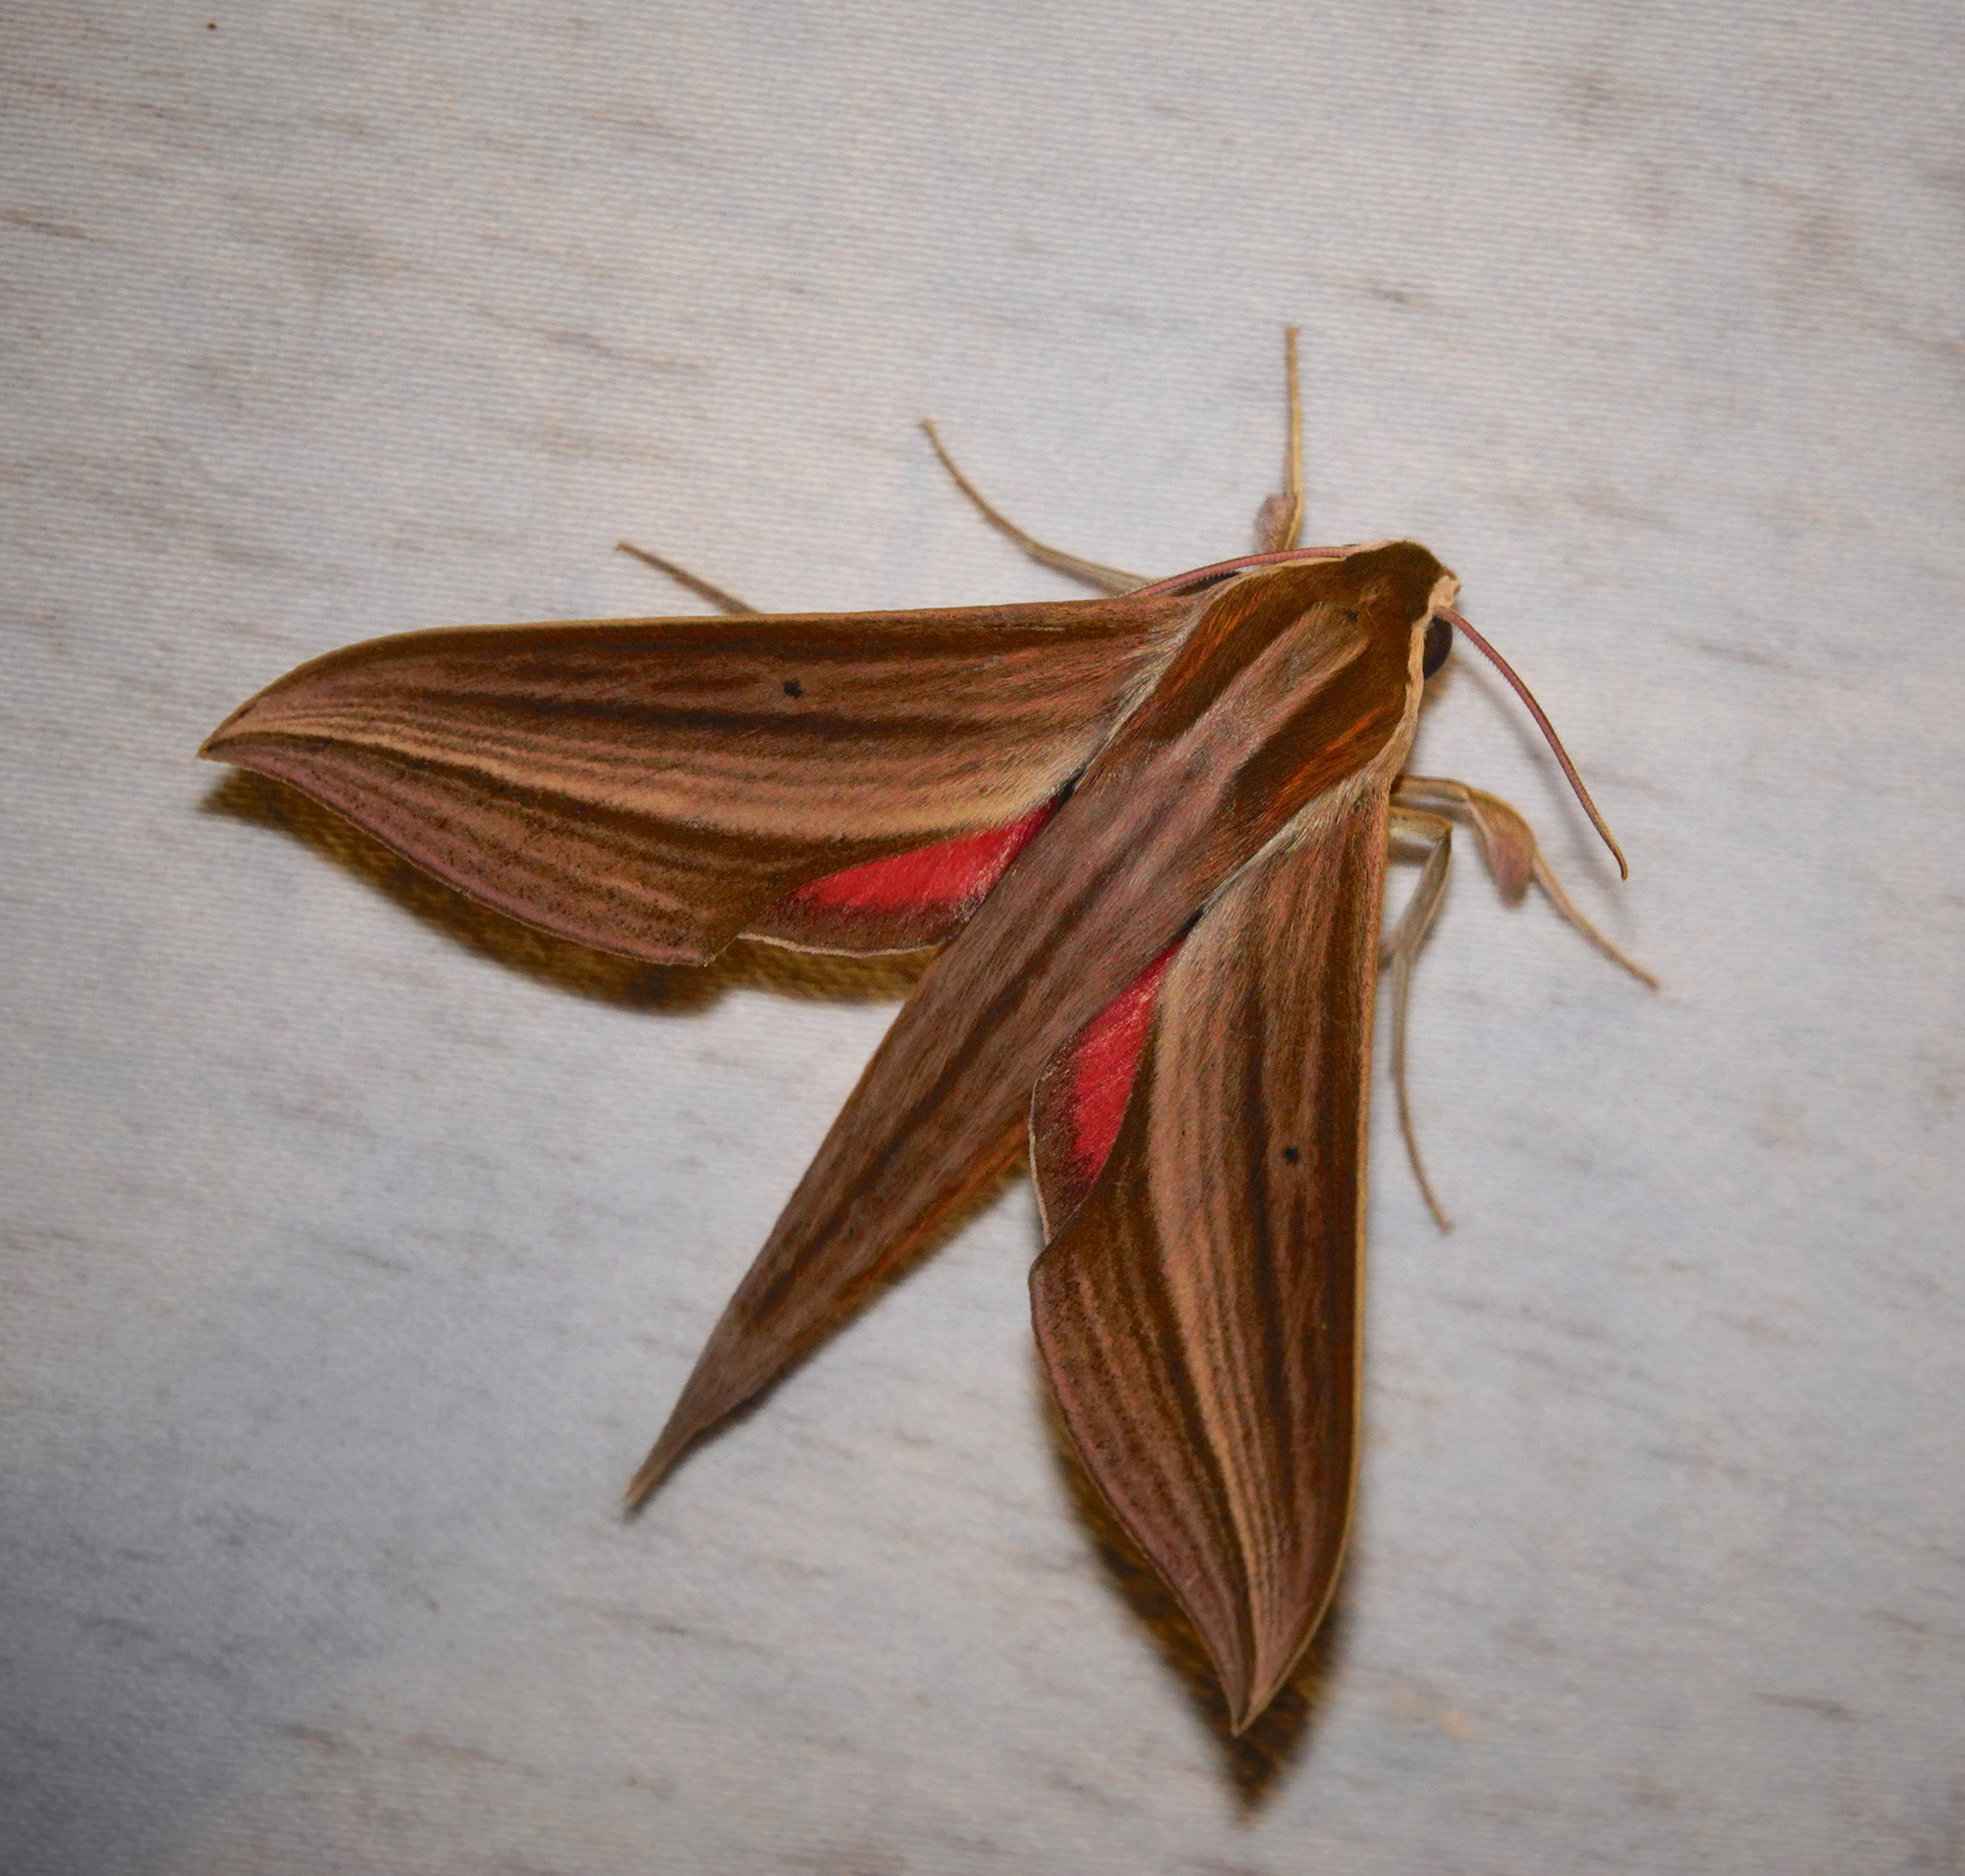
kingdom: Animalia
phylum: Arthropoda
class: Insecta
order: Lepidoptera
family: Sphingidae
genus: Xylophanes
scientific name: Xylophanes neoptolemus
